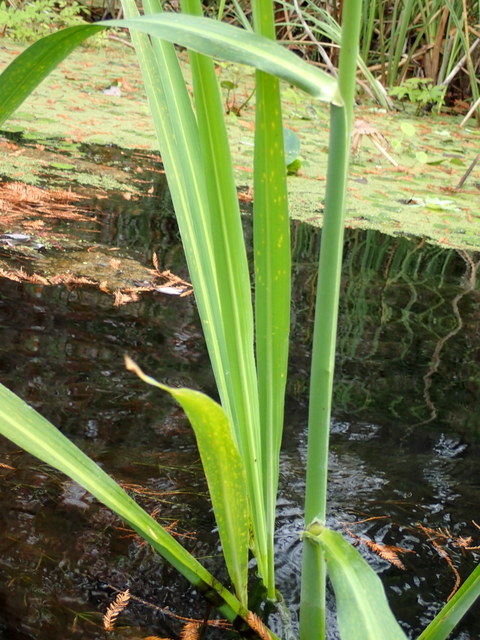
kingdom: Plantae
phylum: Tracheophyta
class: Liliopsida
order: Poales
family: Poaceae
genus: Zizania
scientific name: Zizania aquatica
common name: Annual wildrice
